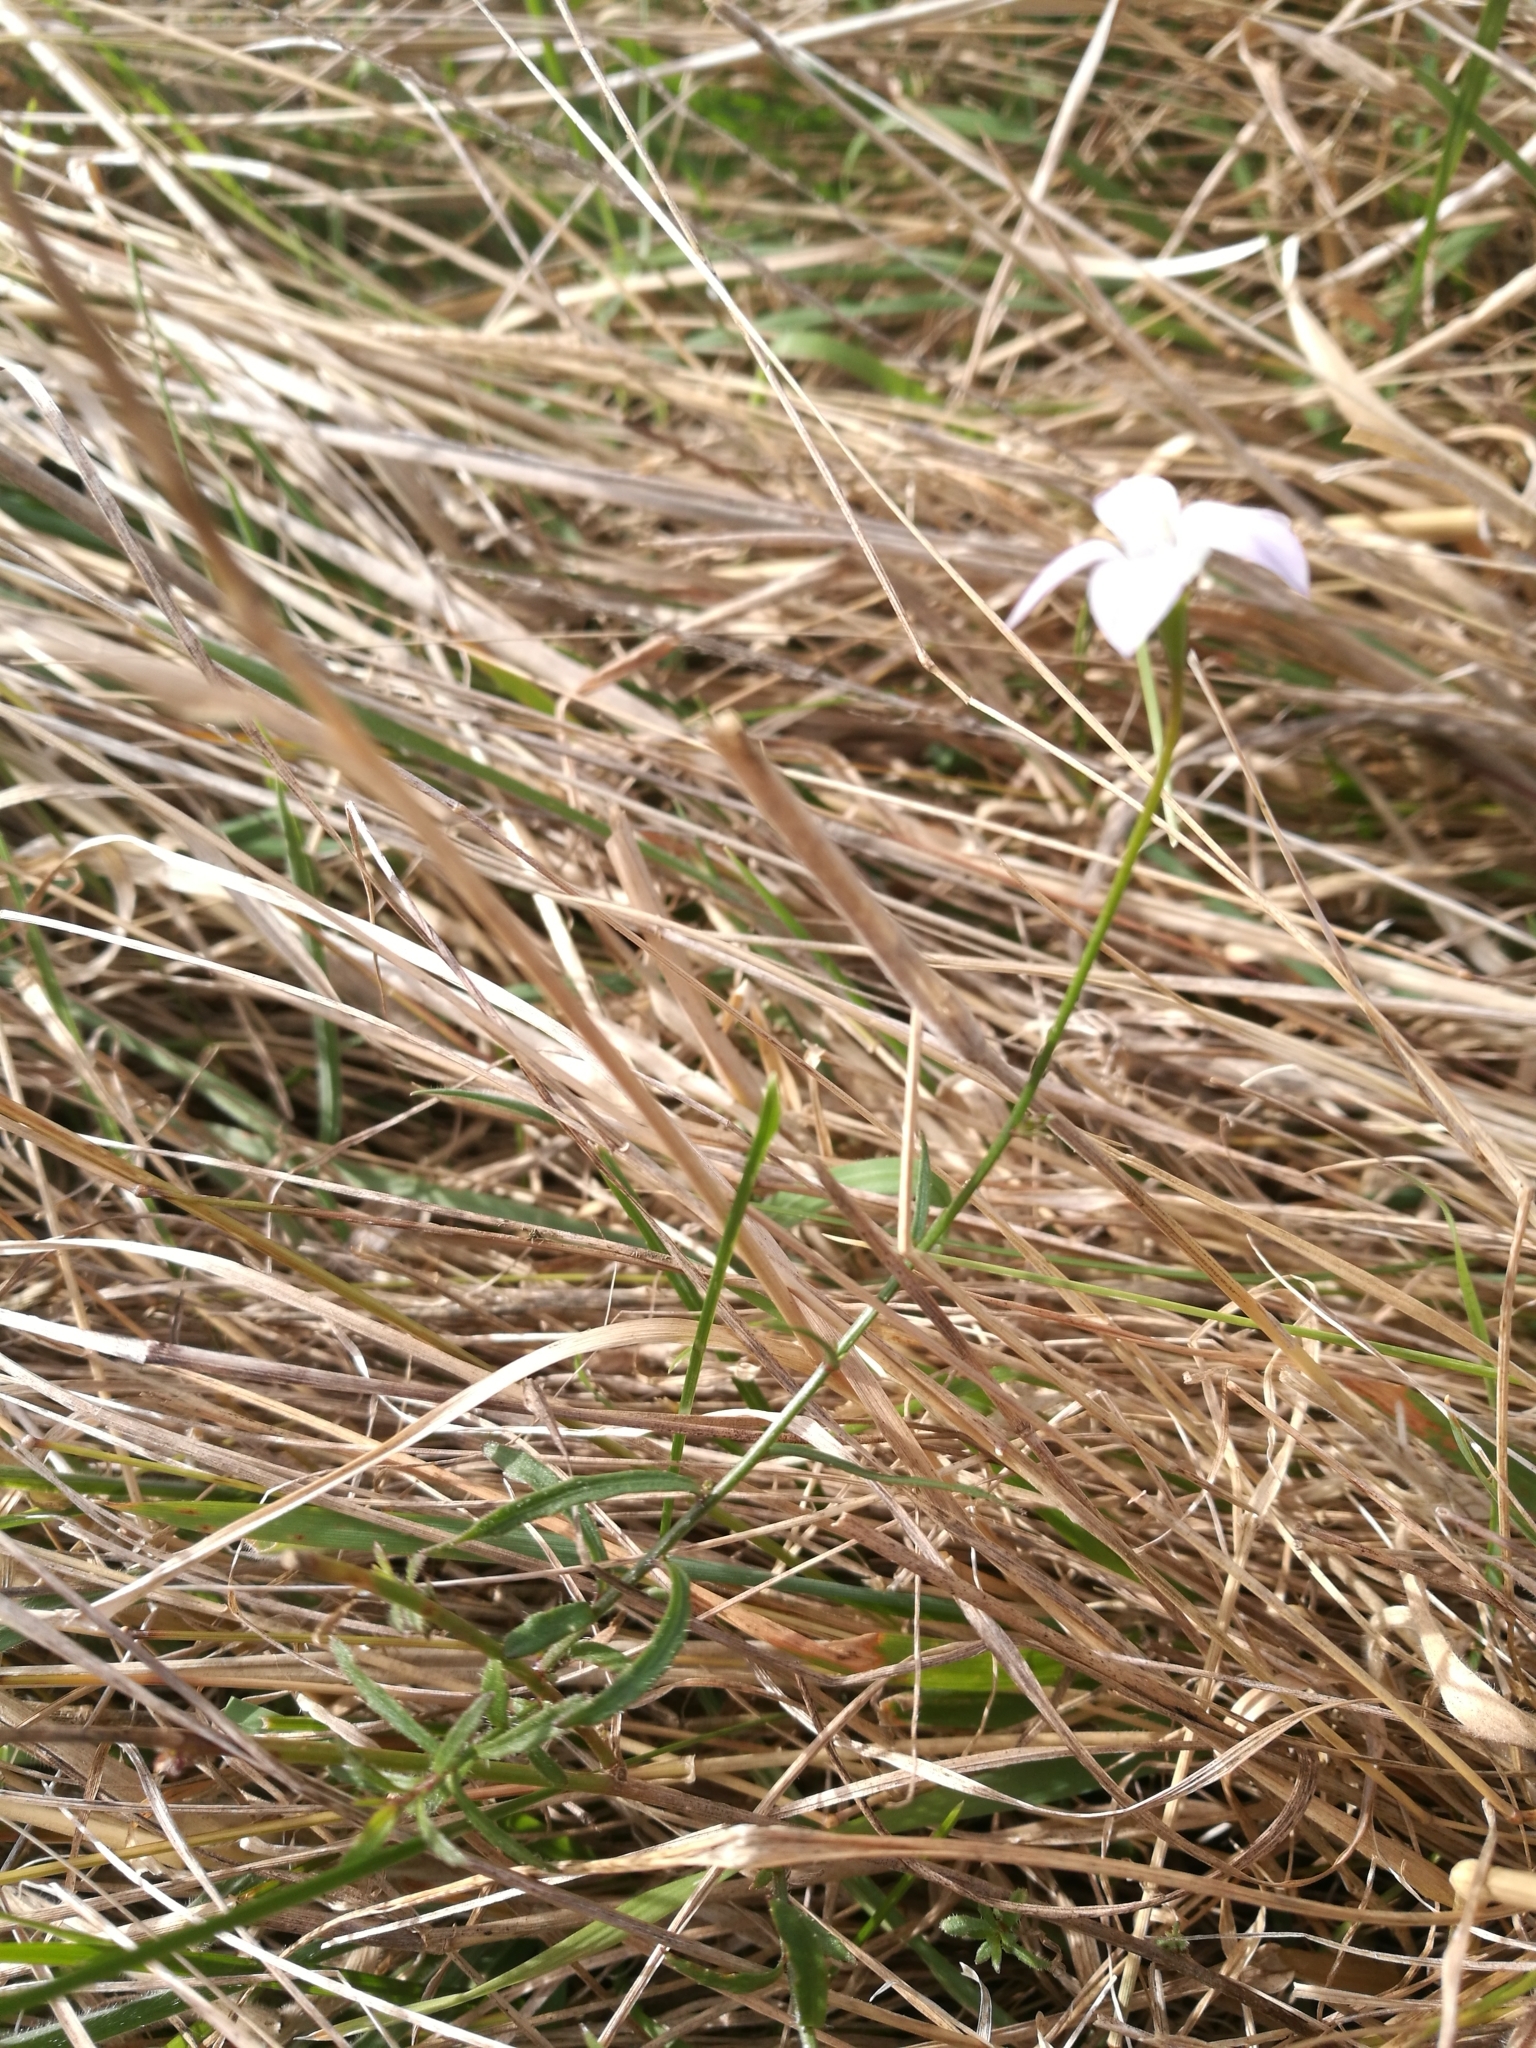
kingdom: Plantae
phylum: Tracheophyta
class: Magnoliopsida
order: Asterales
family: Campanulaceae
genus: Wahlenbergia
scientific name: Wahlenbergia albomarginata
